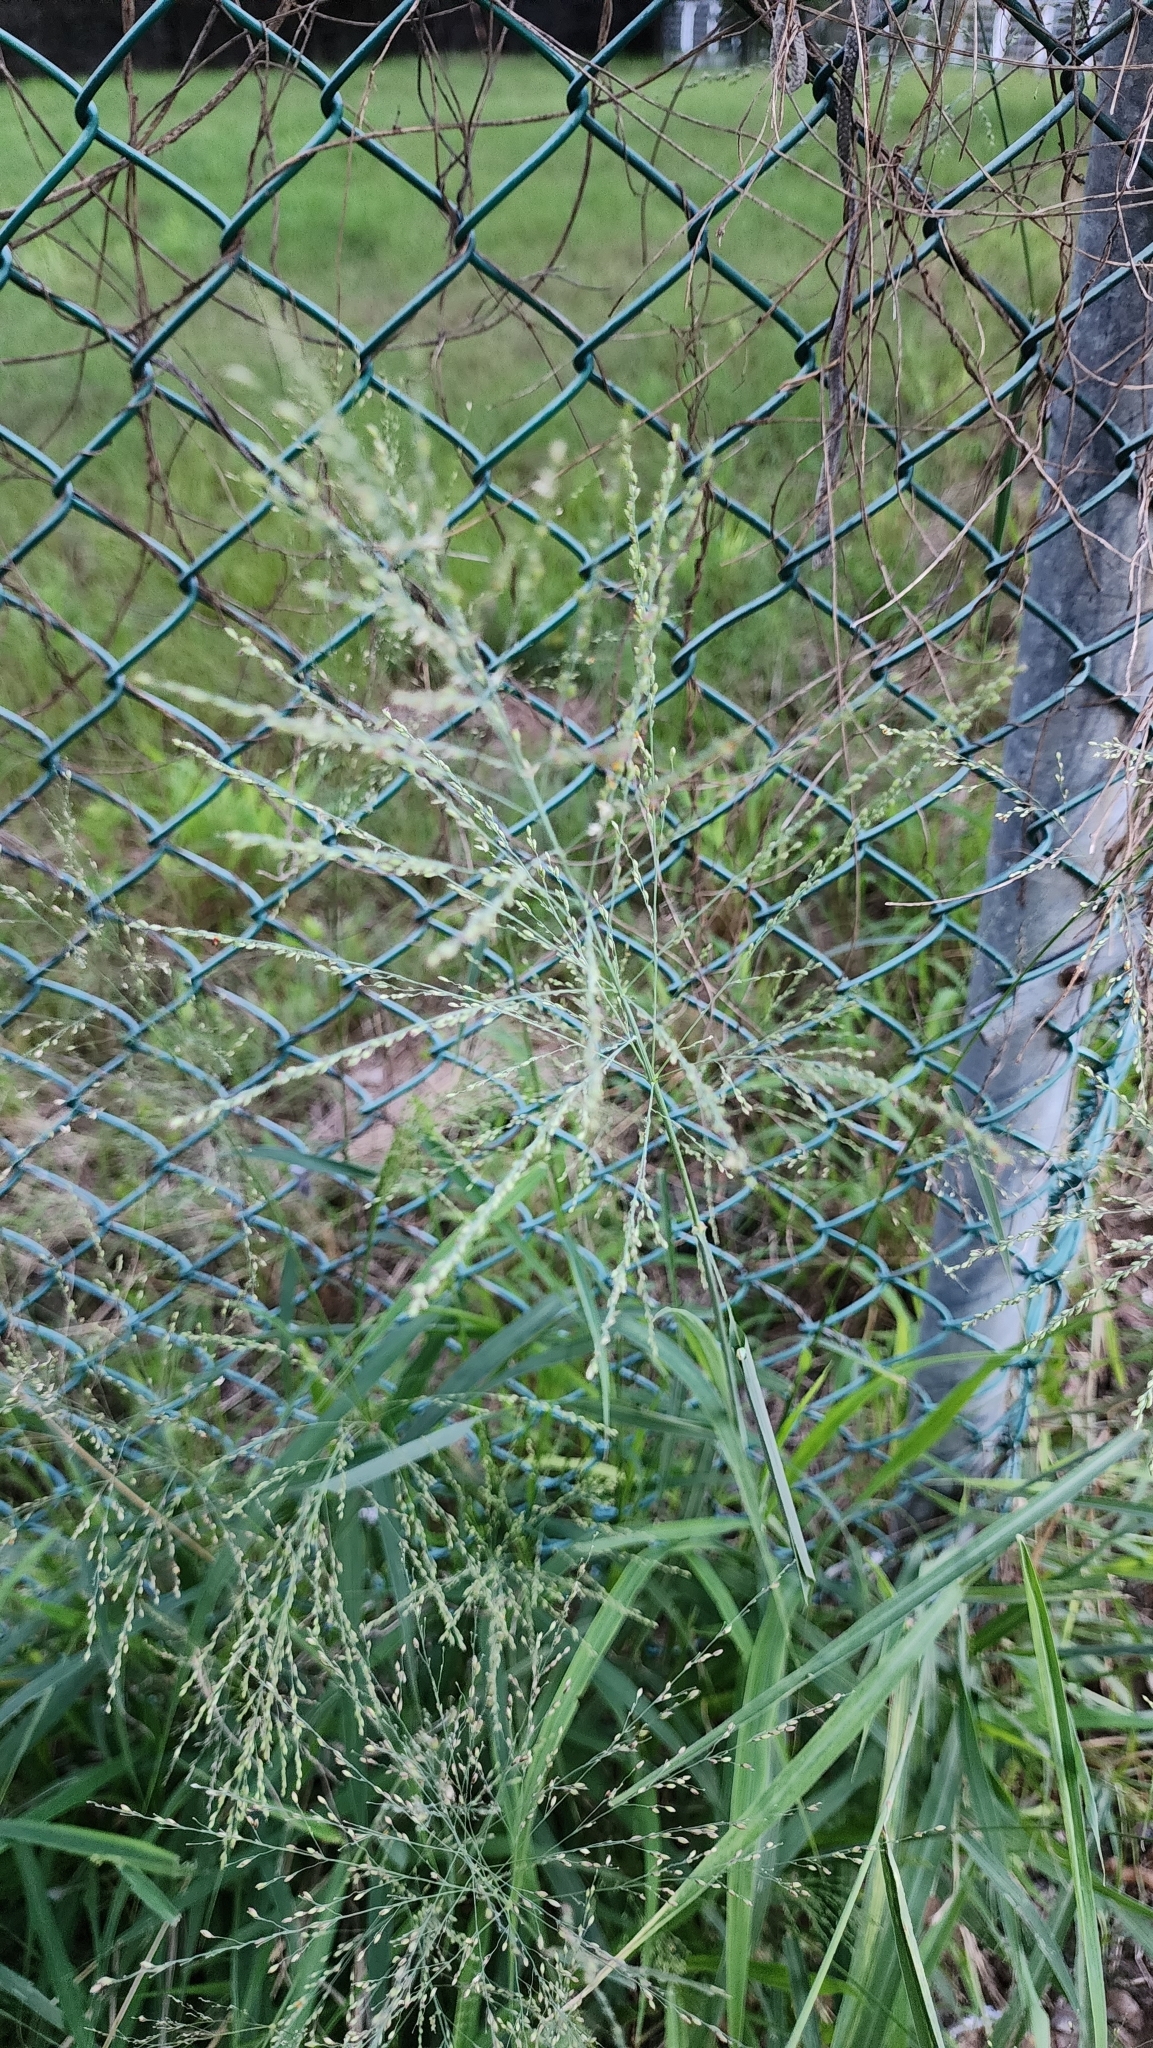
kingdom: Plantae
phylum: Tracheophyta
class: Liliopsida
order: Poales
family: Poaceae
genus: Megathyrsus
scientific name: Megathyrsus maximus
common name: Guineagrass
